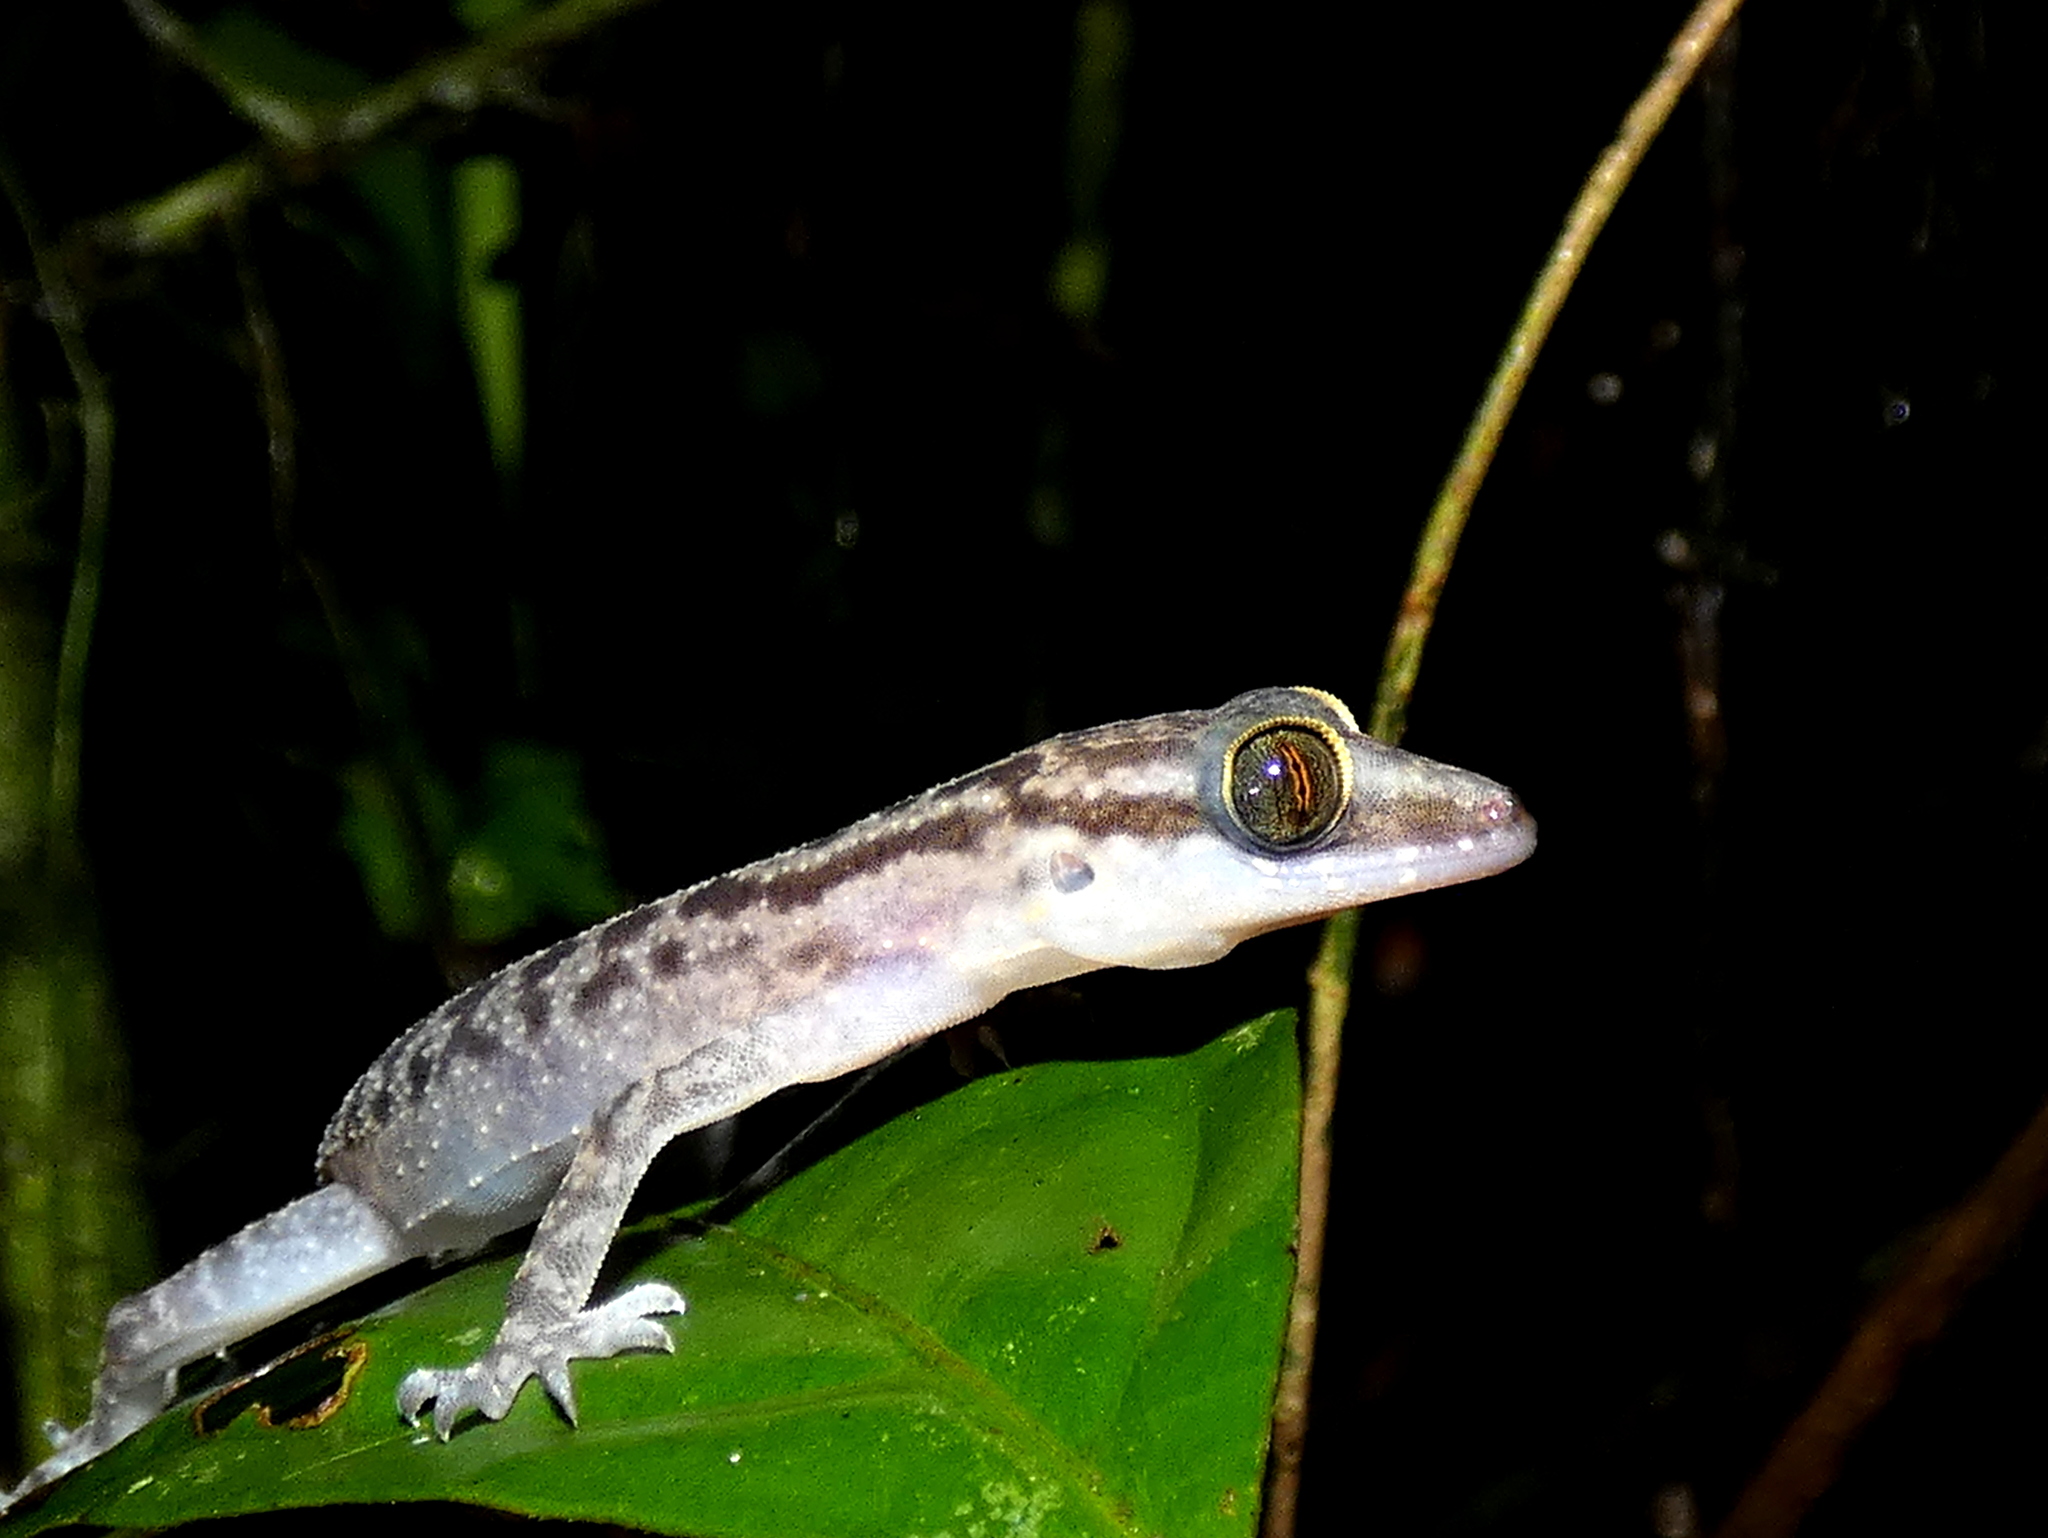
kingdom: Animalia
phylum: Chordata
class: Squamata
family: Gekkonidae
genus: Cyrtodactylus
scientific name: Cyrtodactylus miriensis
